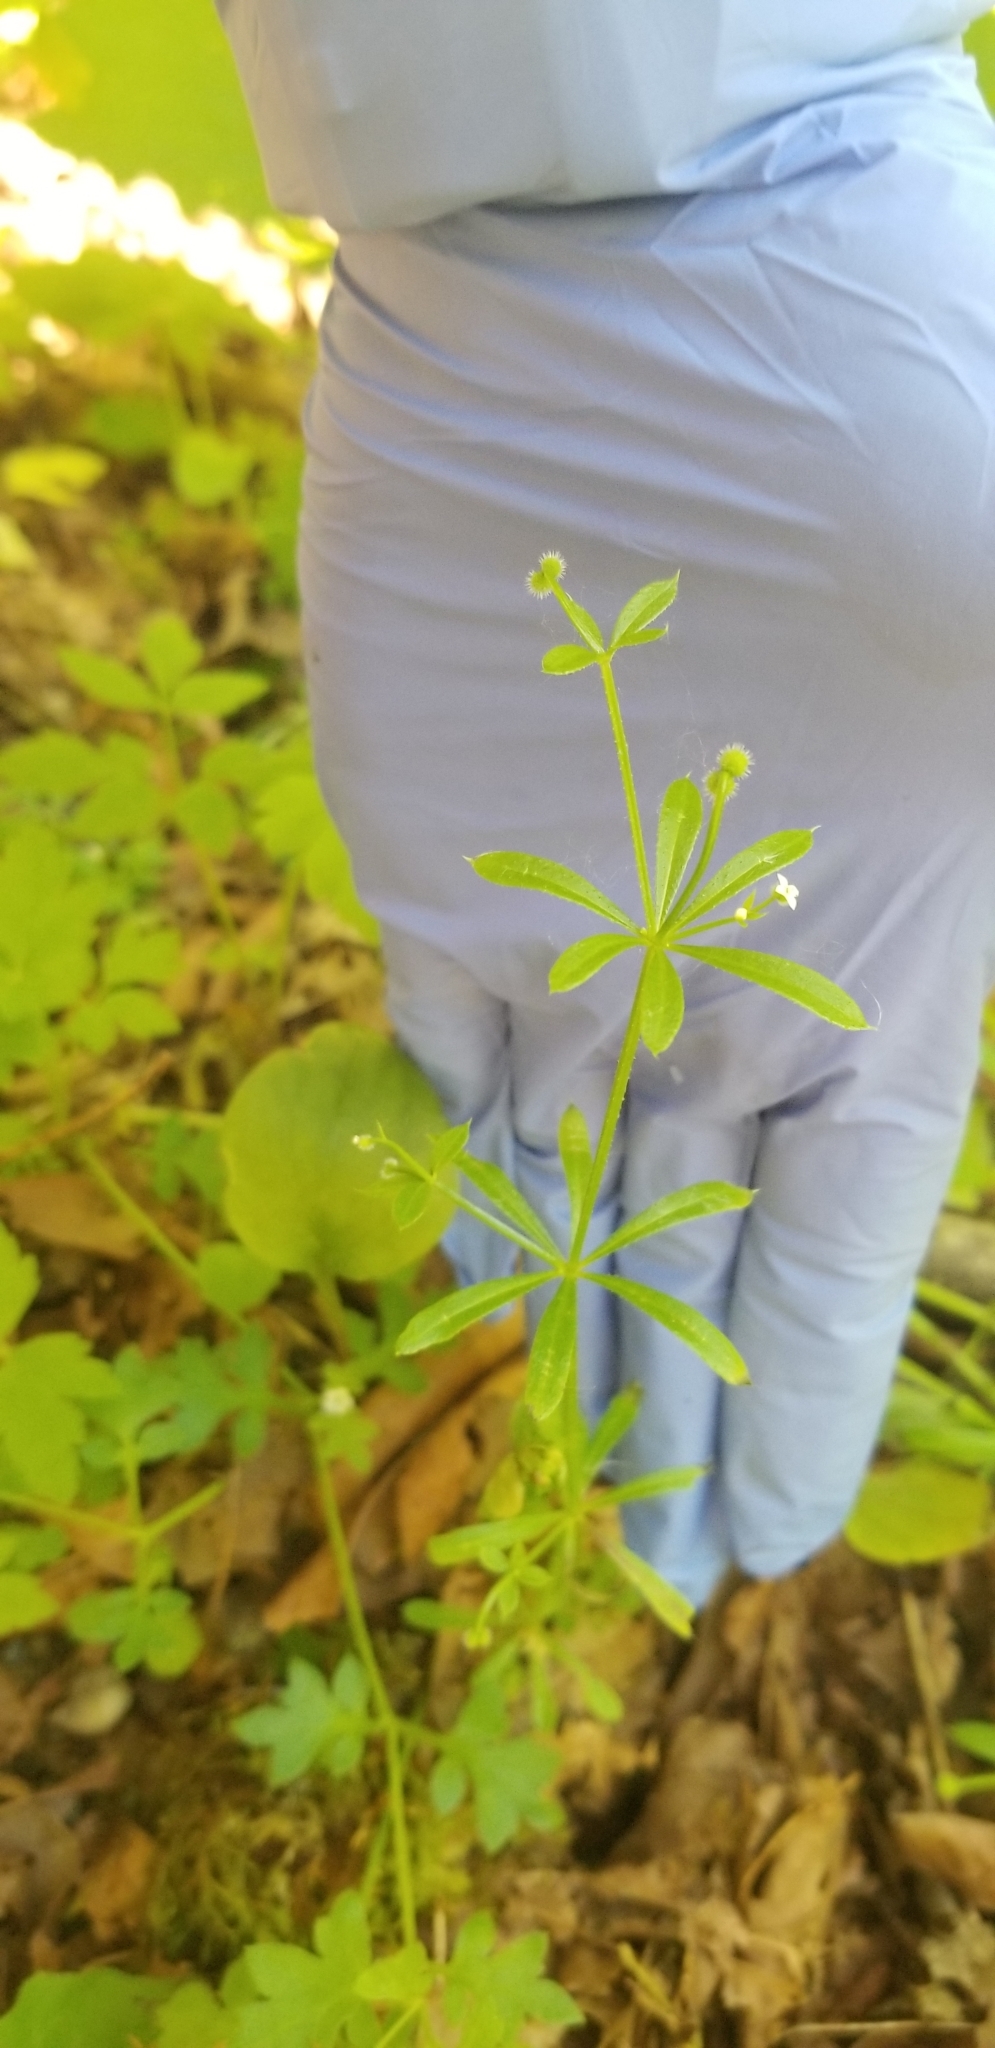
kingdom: Plantae
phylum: Tracheophyta
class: Magnoliopsida
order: Gentianales
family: Rubiaceae
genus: Galium
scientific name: Galium aparine
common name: Cleavers
